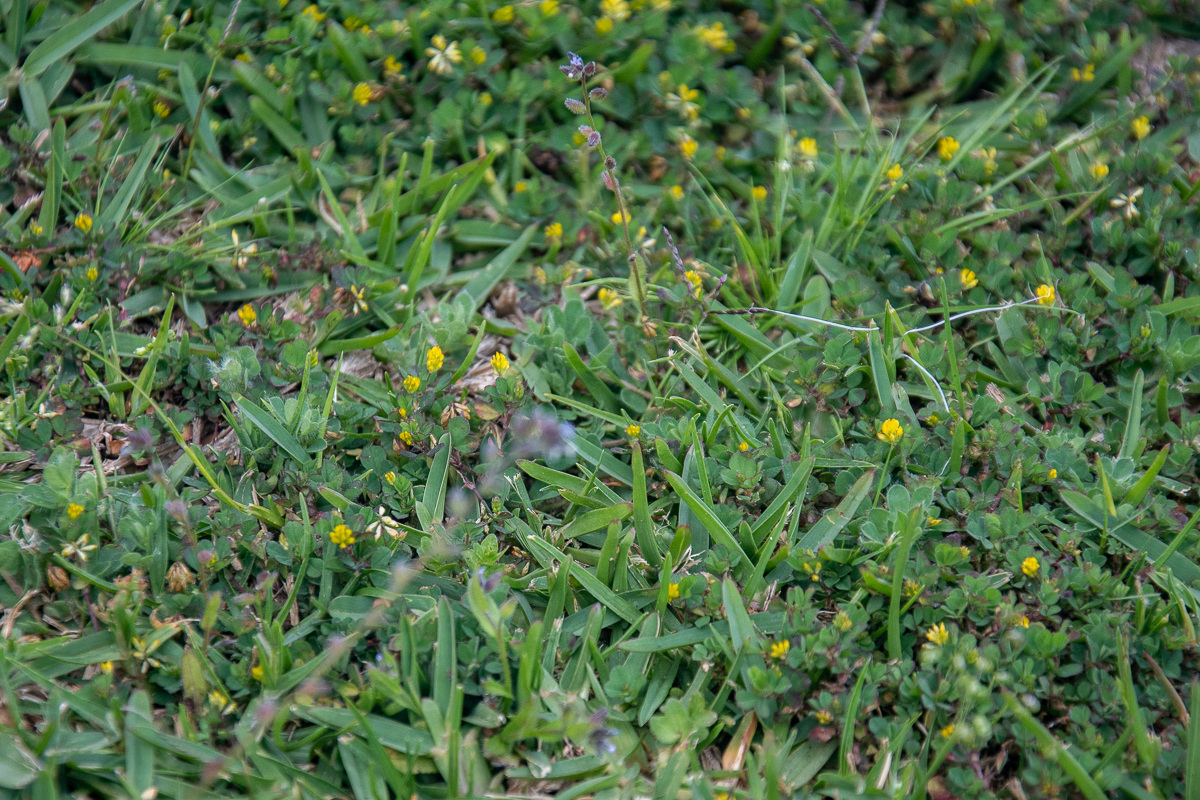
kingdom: Plantae
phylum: Tracheophyta
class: Magnoliopsida
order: Fabales
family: Fabaceae
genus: Trifolium
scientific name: Trifolium dubium
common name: Suckling clover
